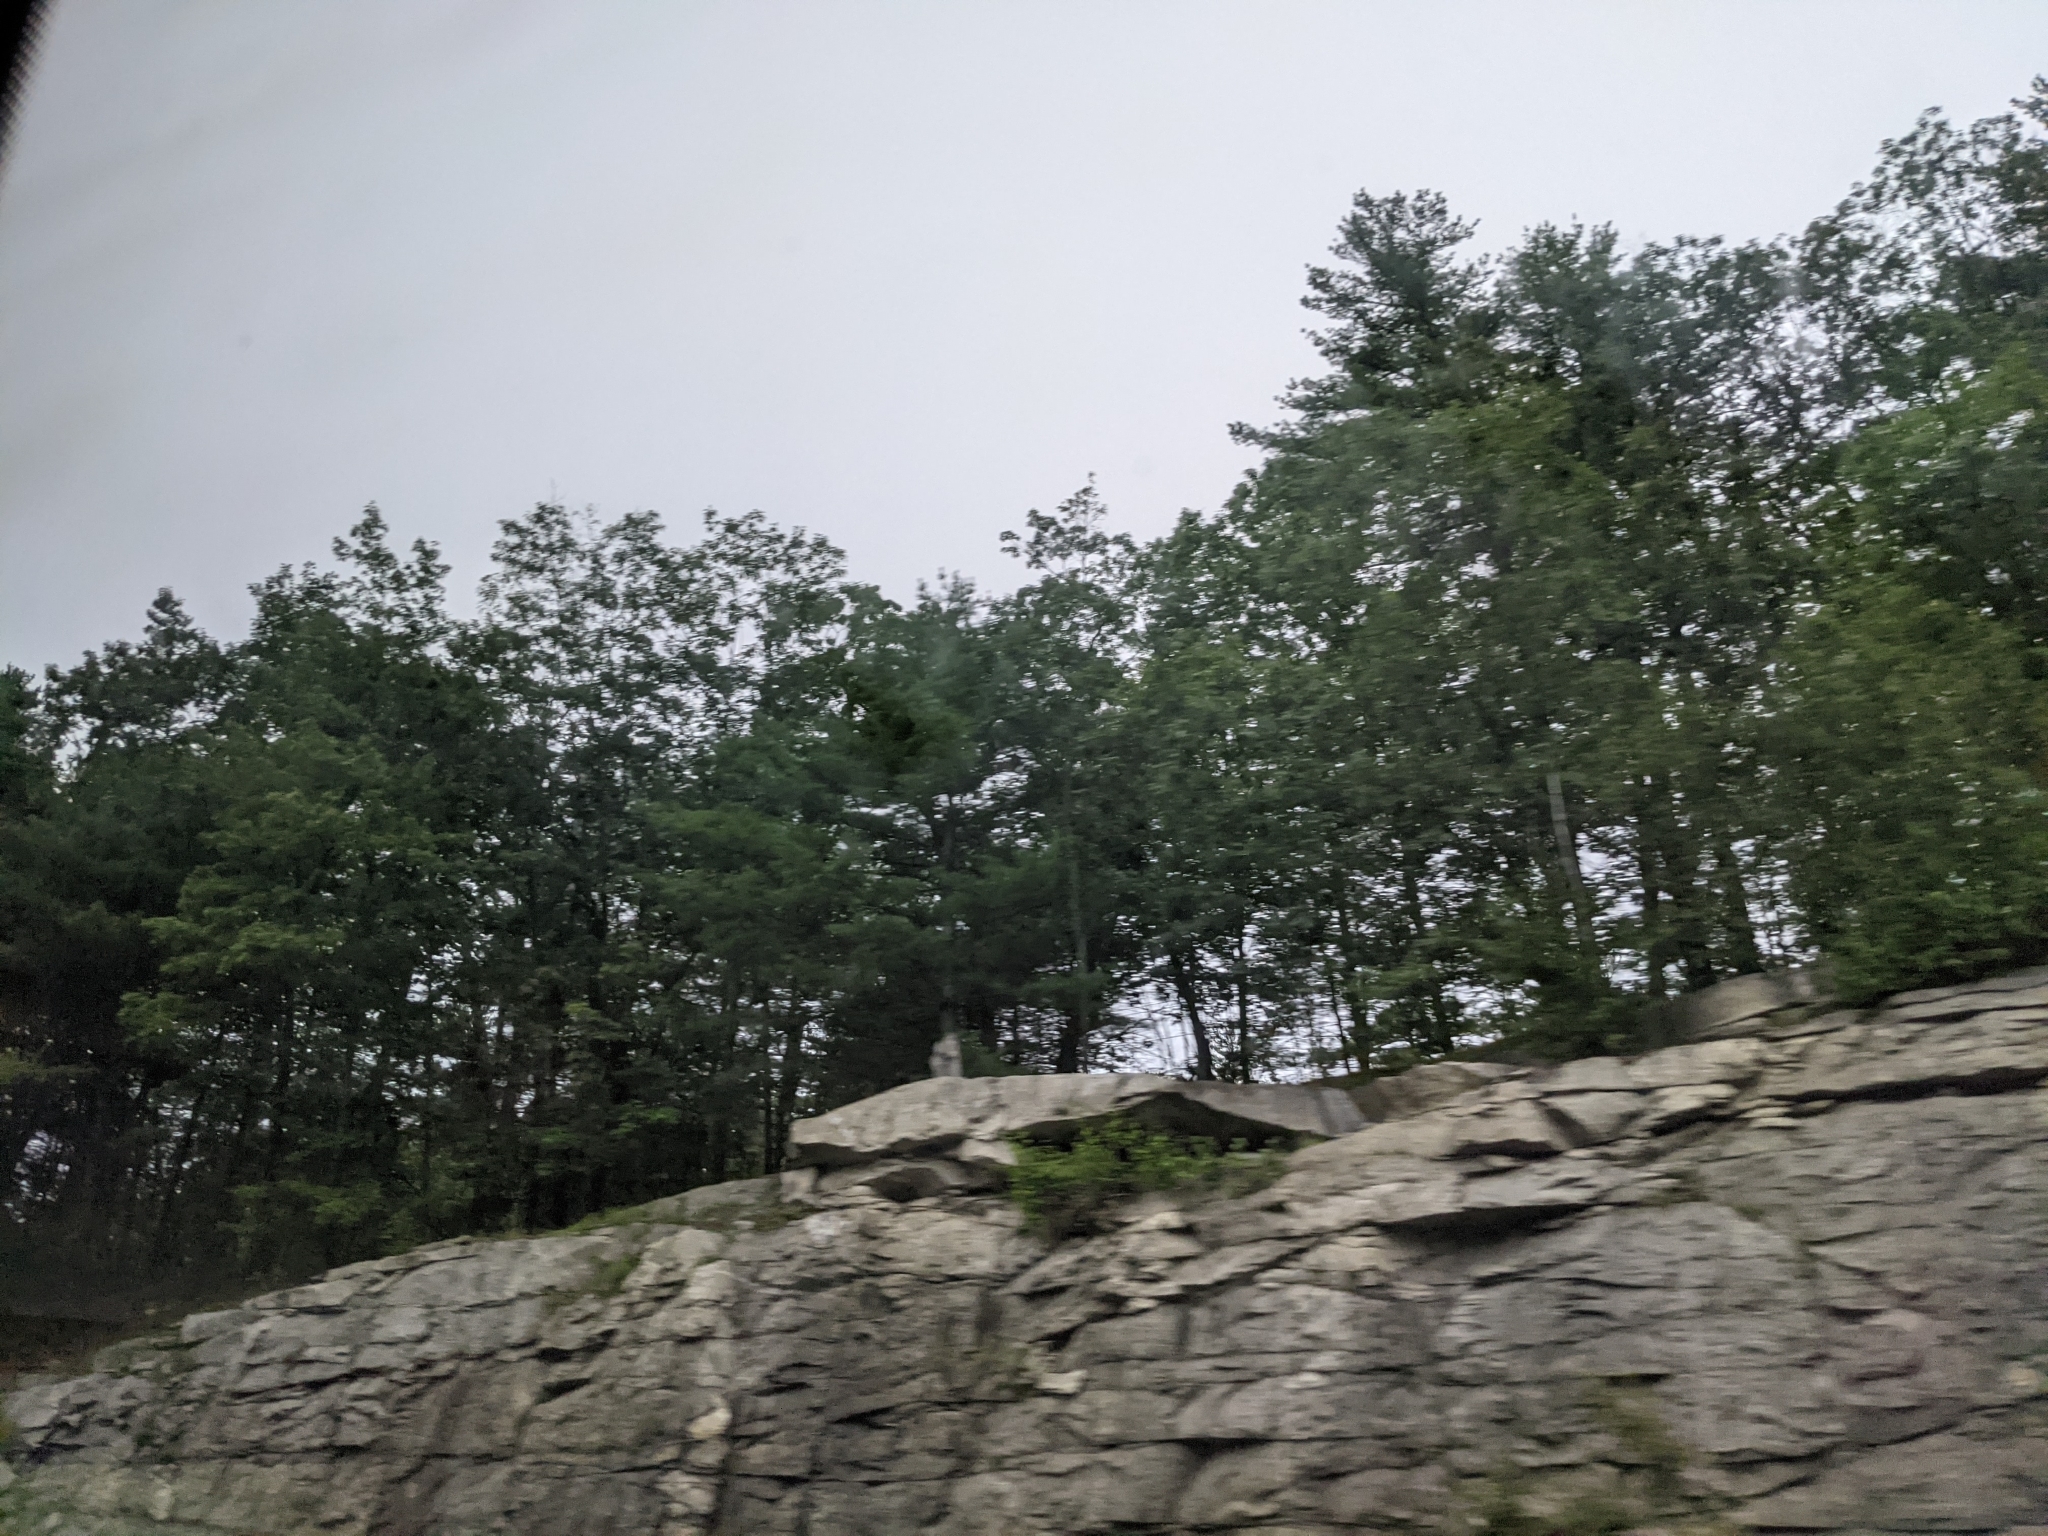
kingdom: Plantae
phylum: Tracheophyta
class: Pinopsida
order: Pinales
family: Pinaceae
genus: Pinus
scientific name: Pinus strobus
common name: Weymouth pine
